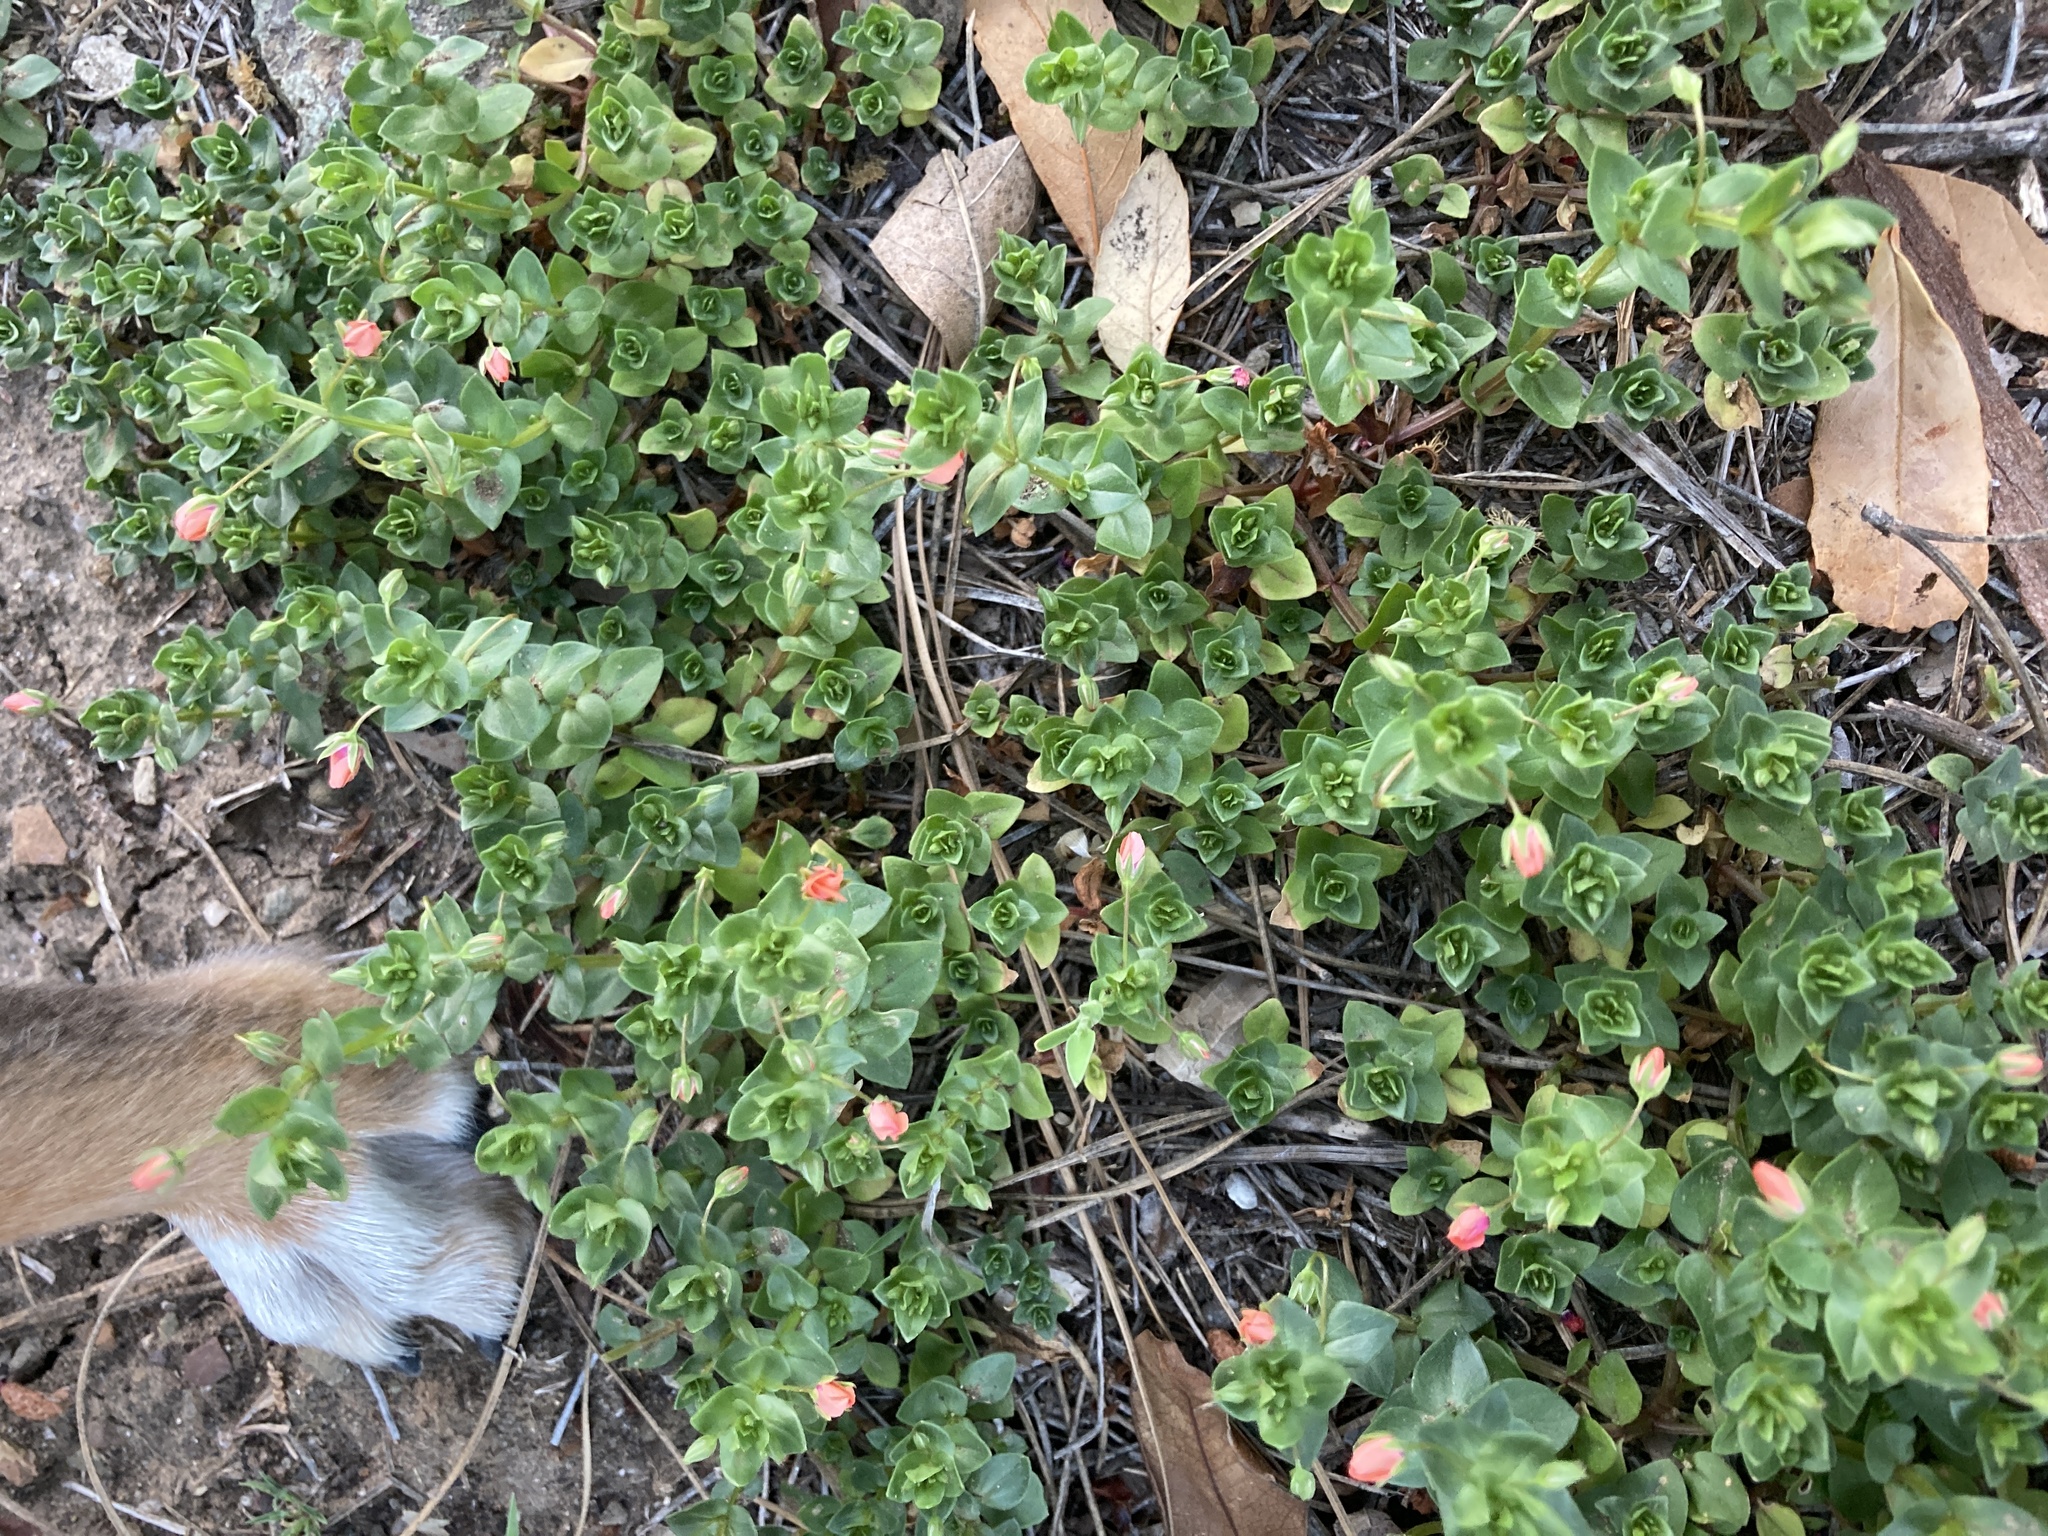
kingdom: Plantae
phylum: Tracheophyta
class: Magnoliopsida
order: Ericales
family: Primulaceae
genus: Lysimachia
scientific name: Lysimachia arvensis
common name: Scarlet pimpernel
